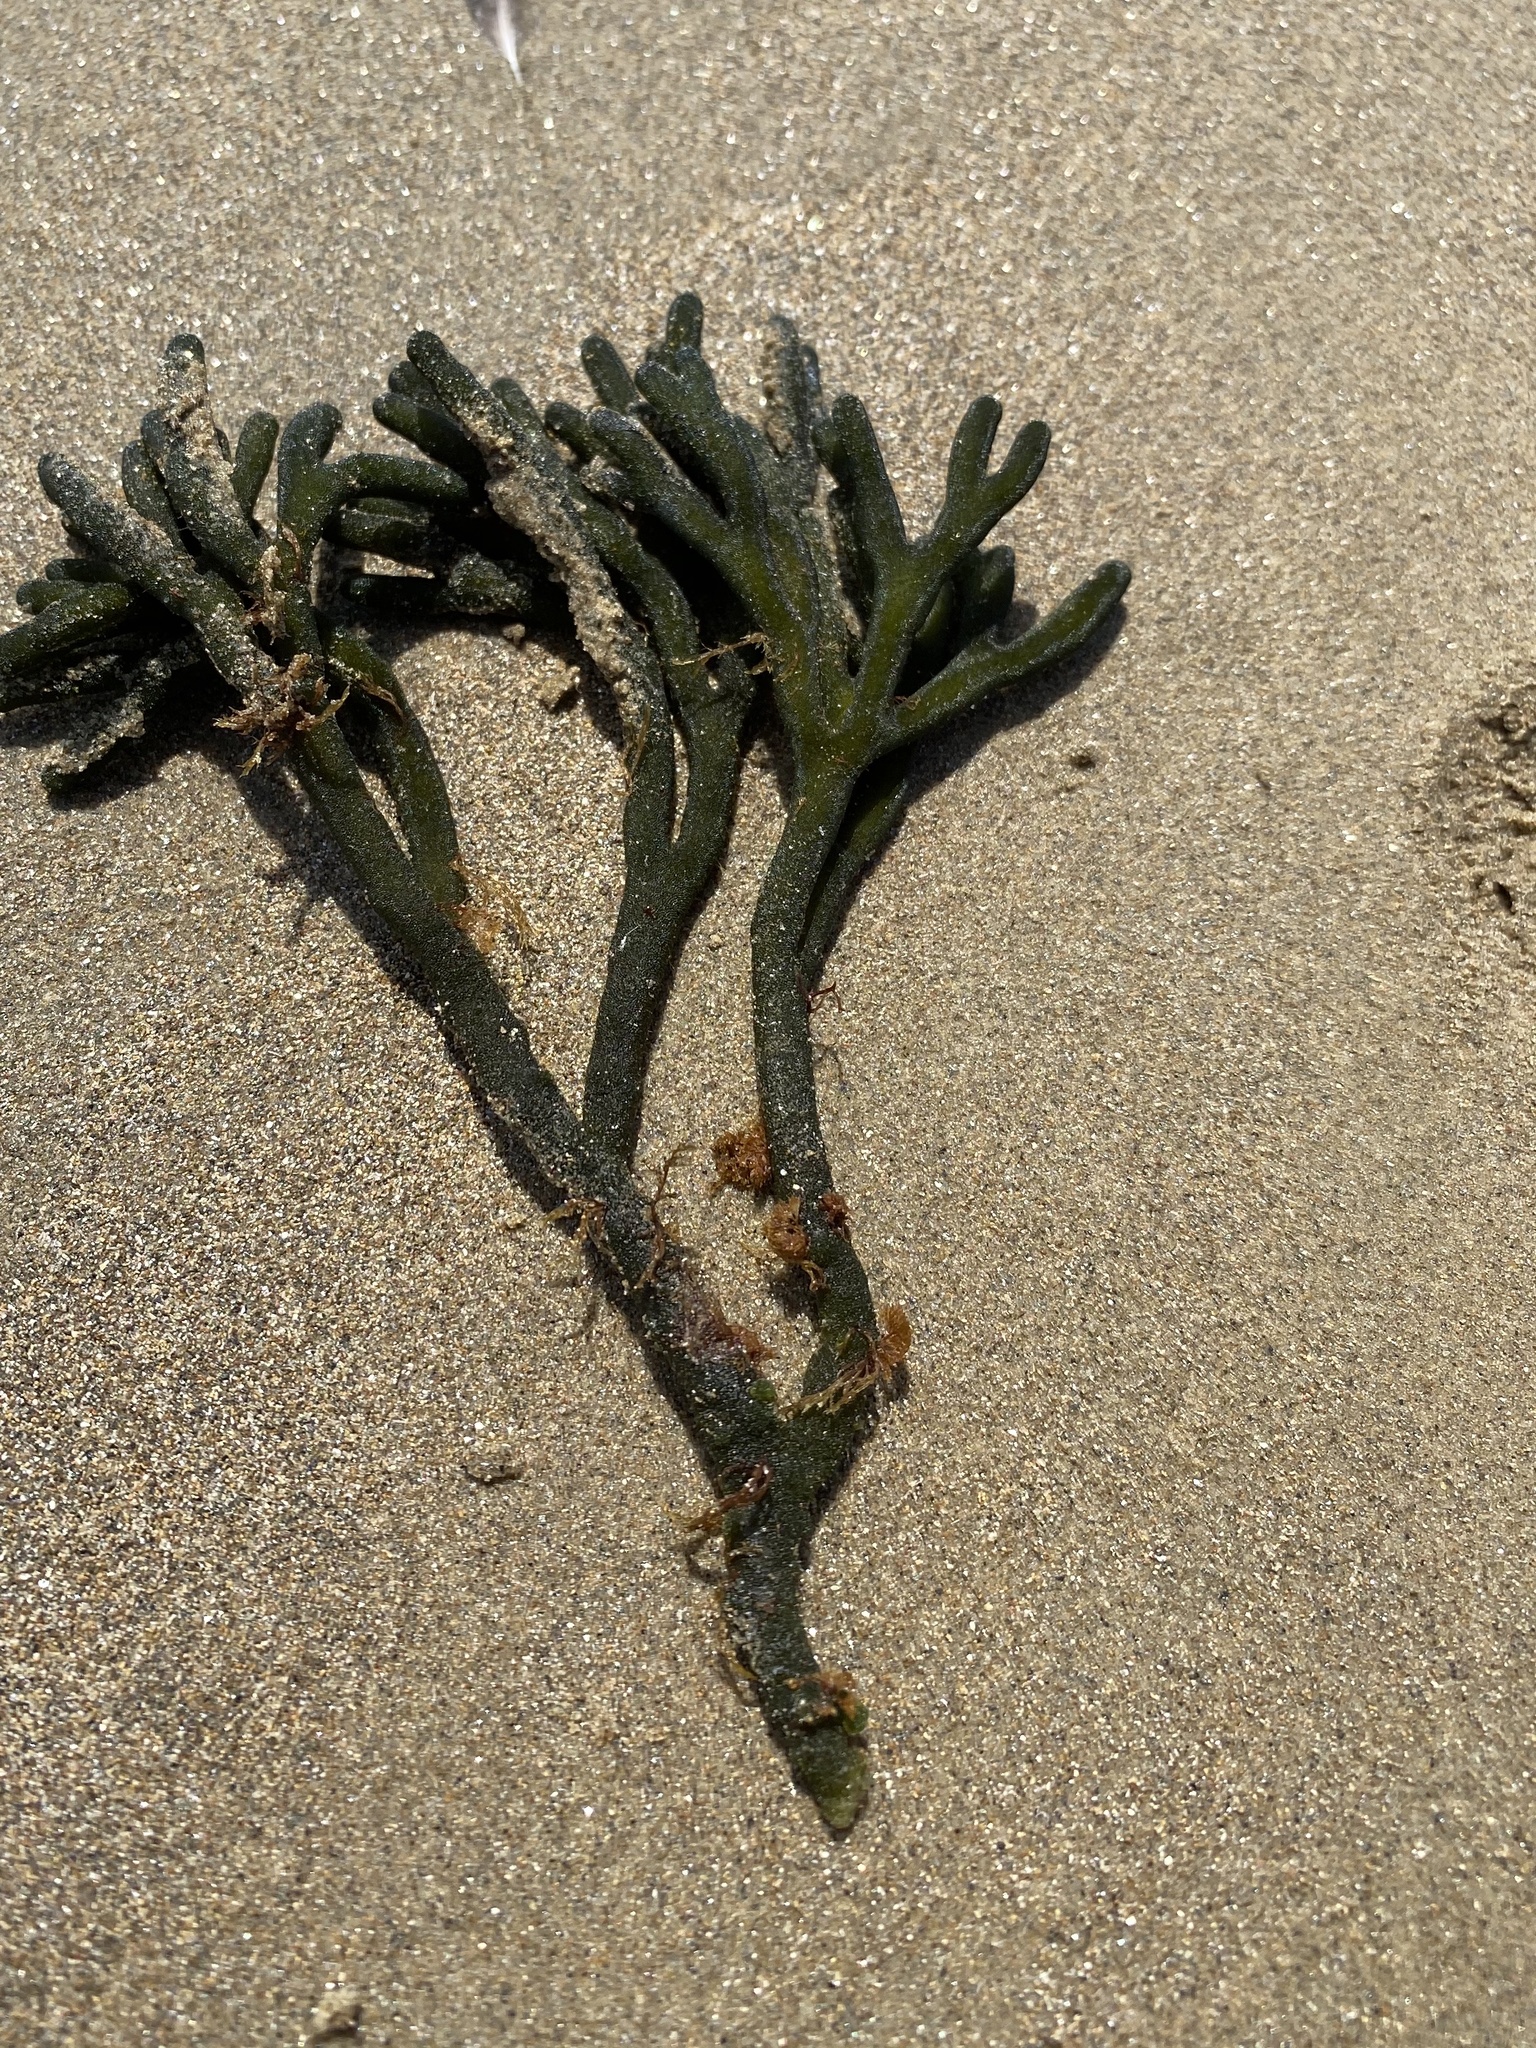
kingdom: Plantae
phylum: Chlorophyta
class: Ulvophyceae
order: Bryopsidales
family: Codiaceae
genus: Codium
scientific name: Codium fragile
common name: Dead man's fingers
